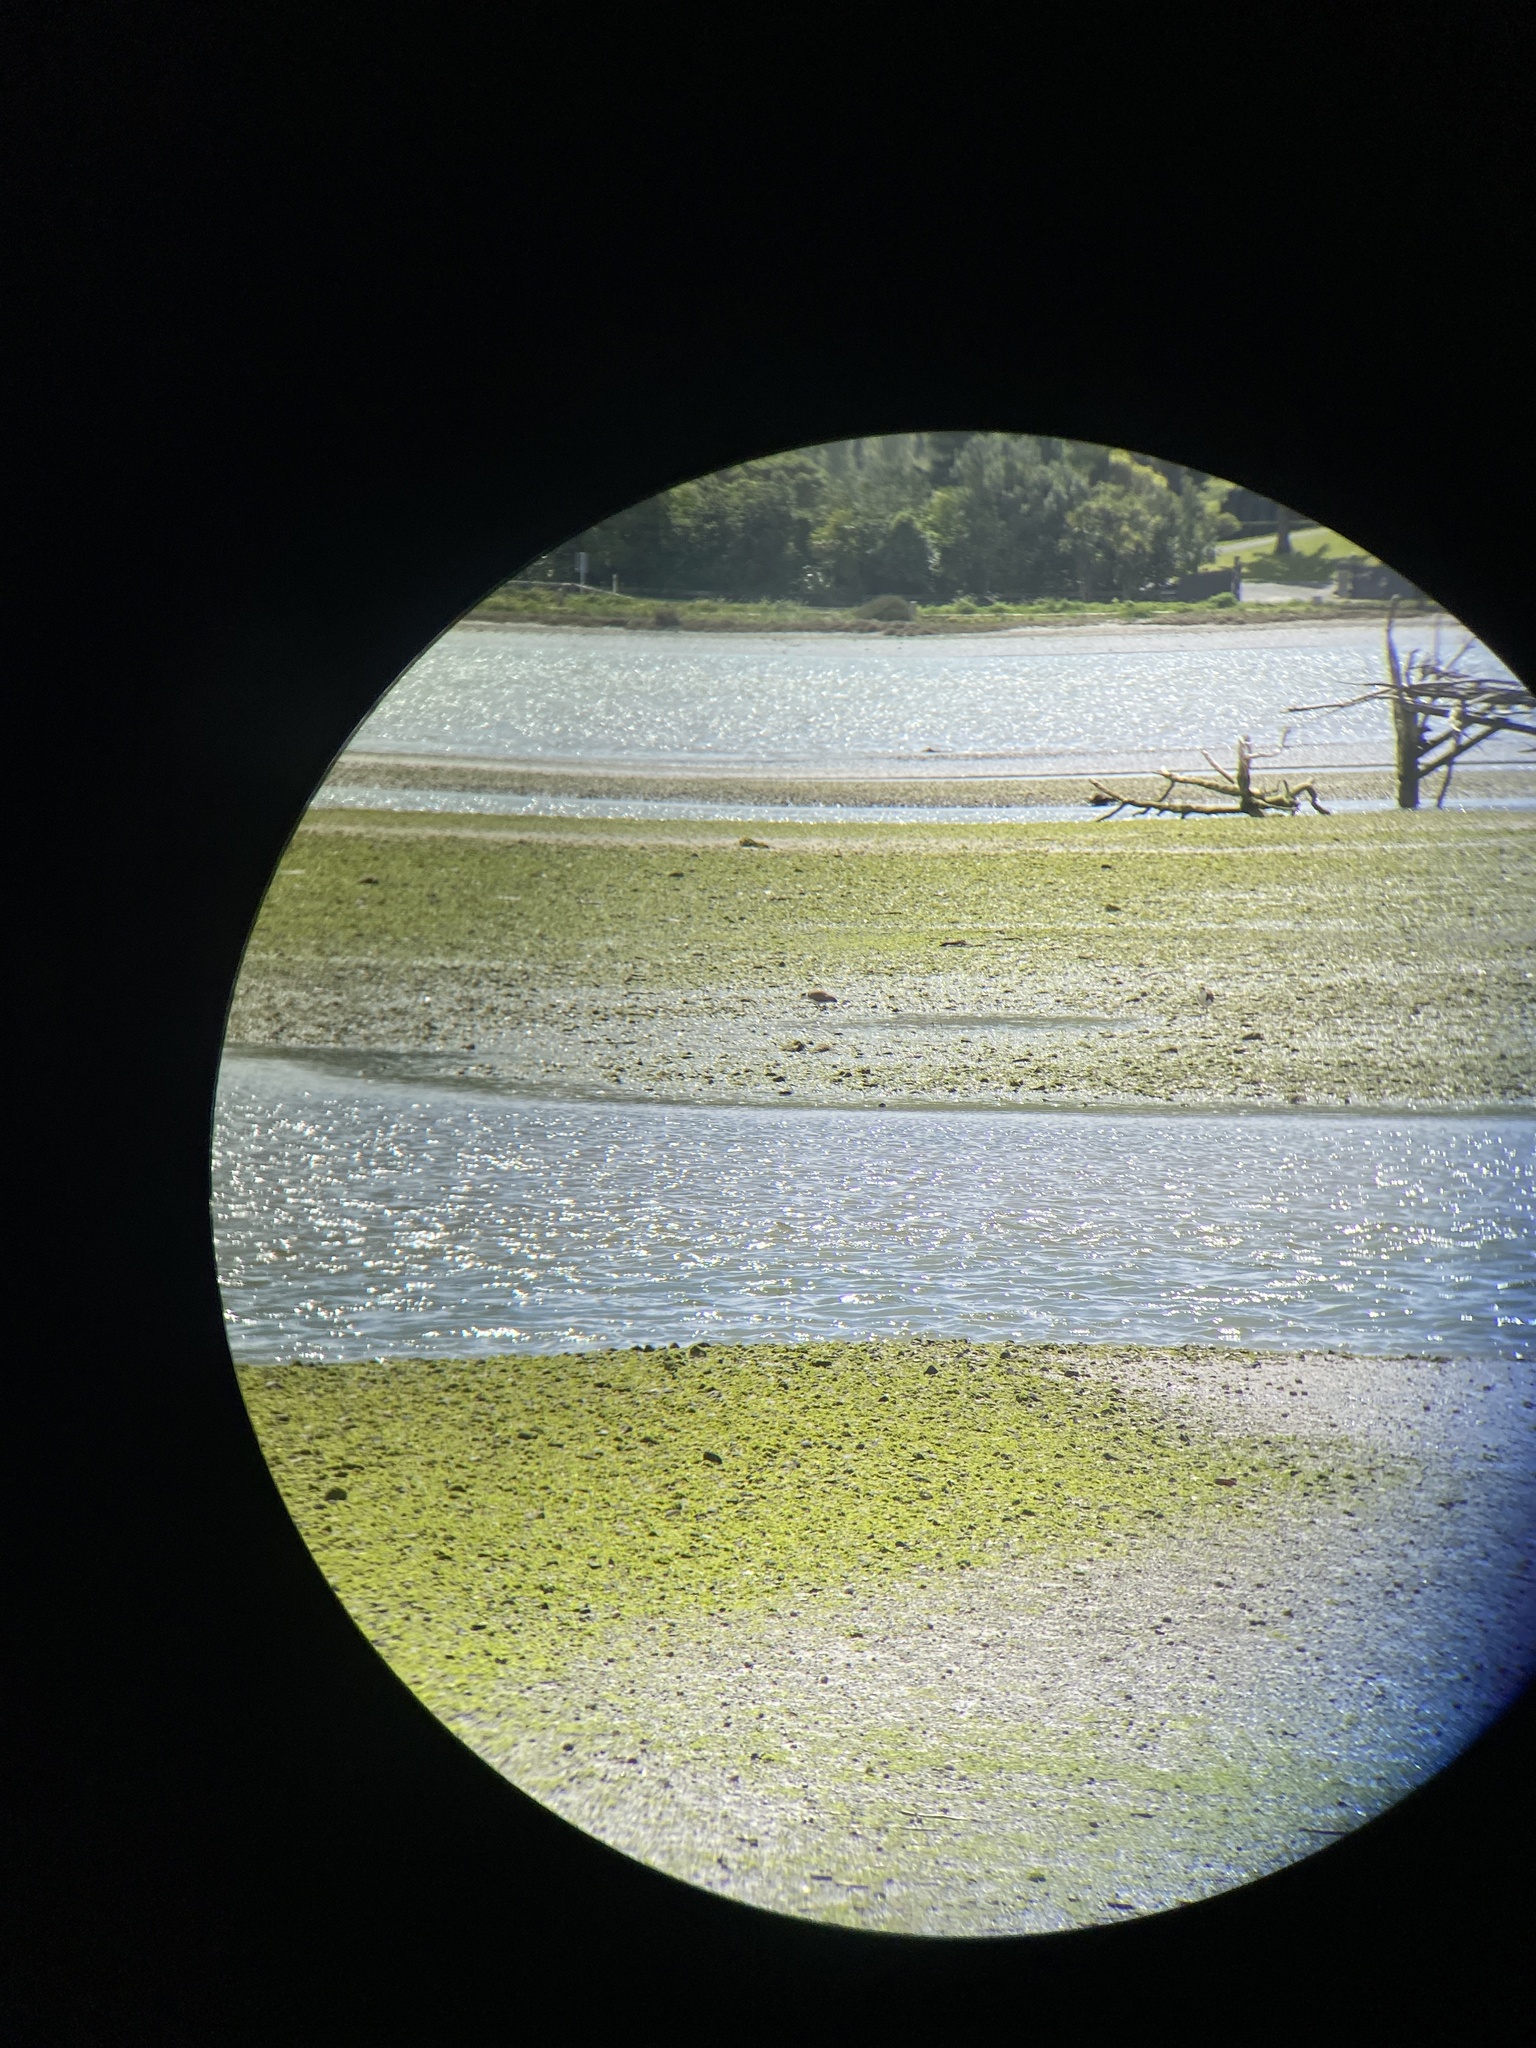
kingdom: Animalia
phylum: Chordata
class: Aves
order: Charadriiformes
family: Charadriidae
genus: Vanellus
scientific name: Vanellus miles
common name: Masked lapwing
